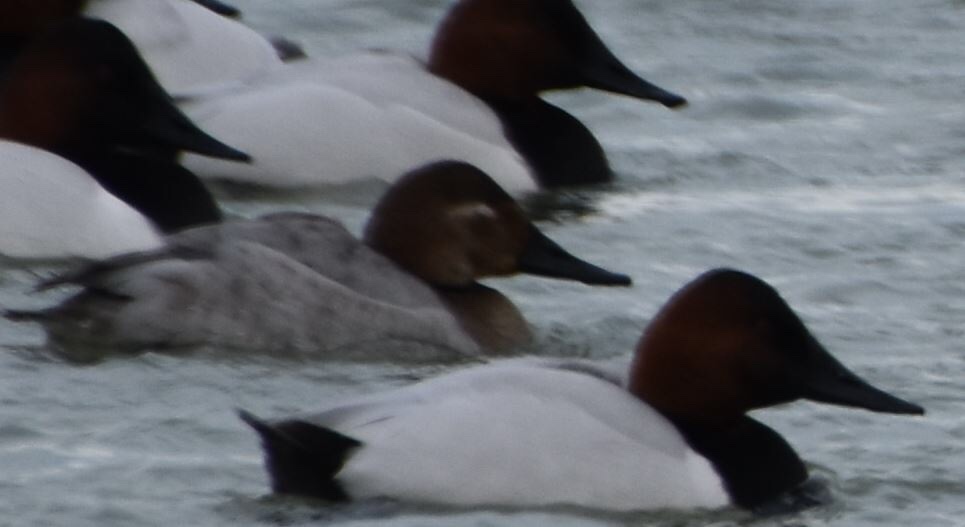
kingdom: Animalia
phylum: Chordata
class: Aves
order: Anseriformes
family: Anatidae
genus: Aythya
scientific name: Aythya valisineria
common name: Canvasback
